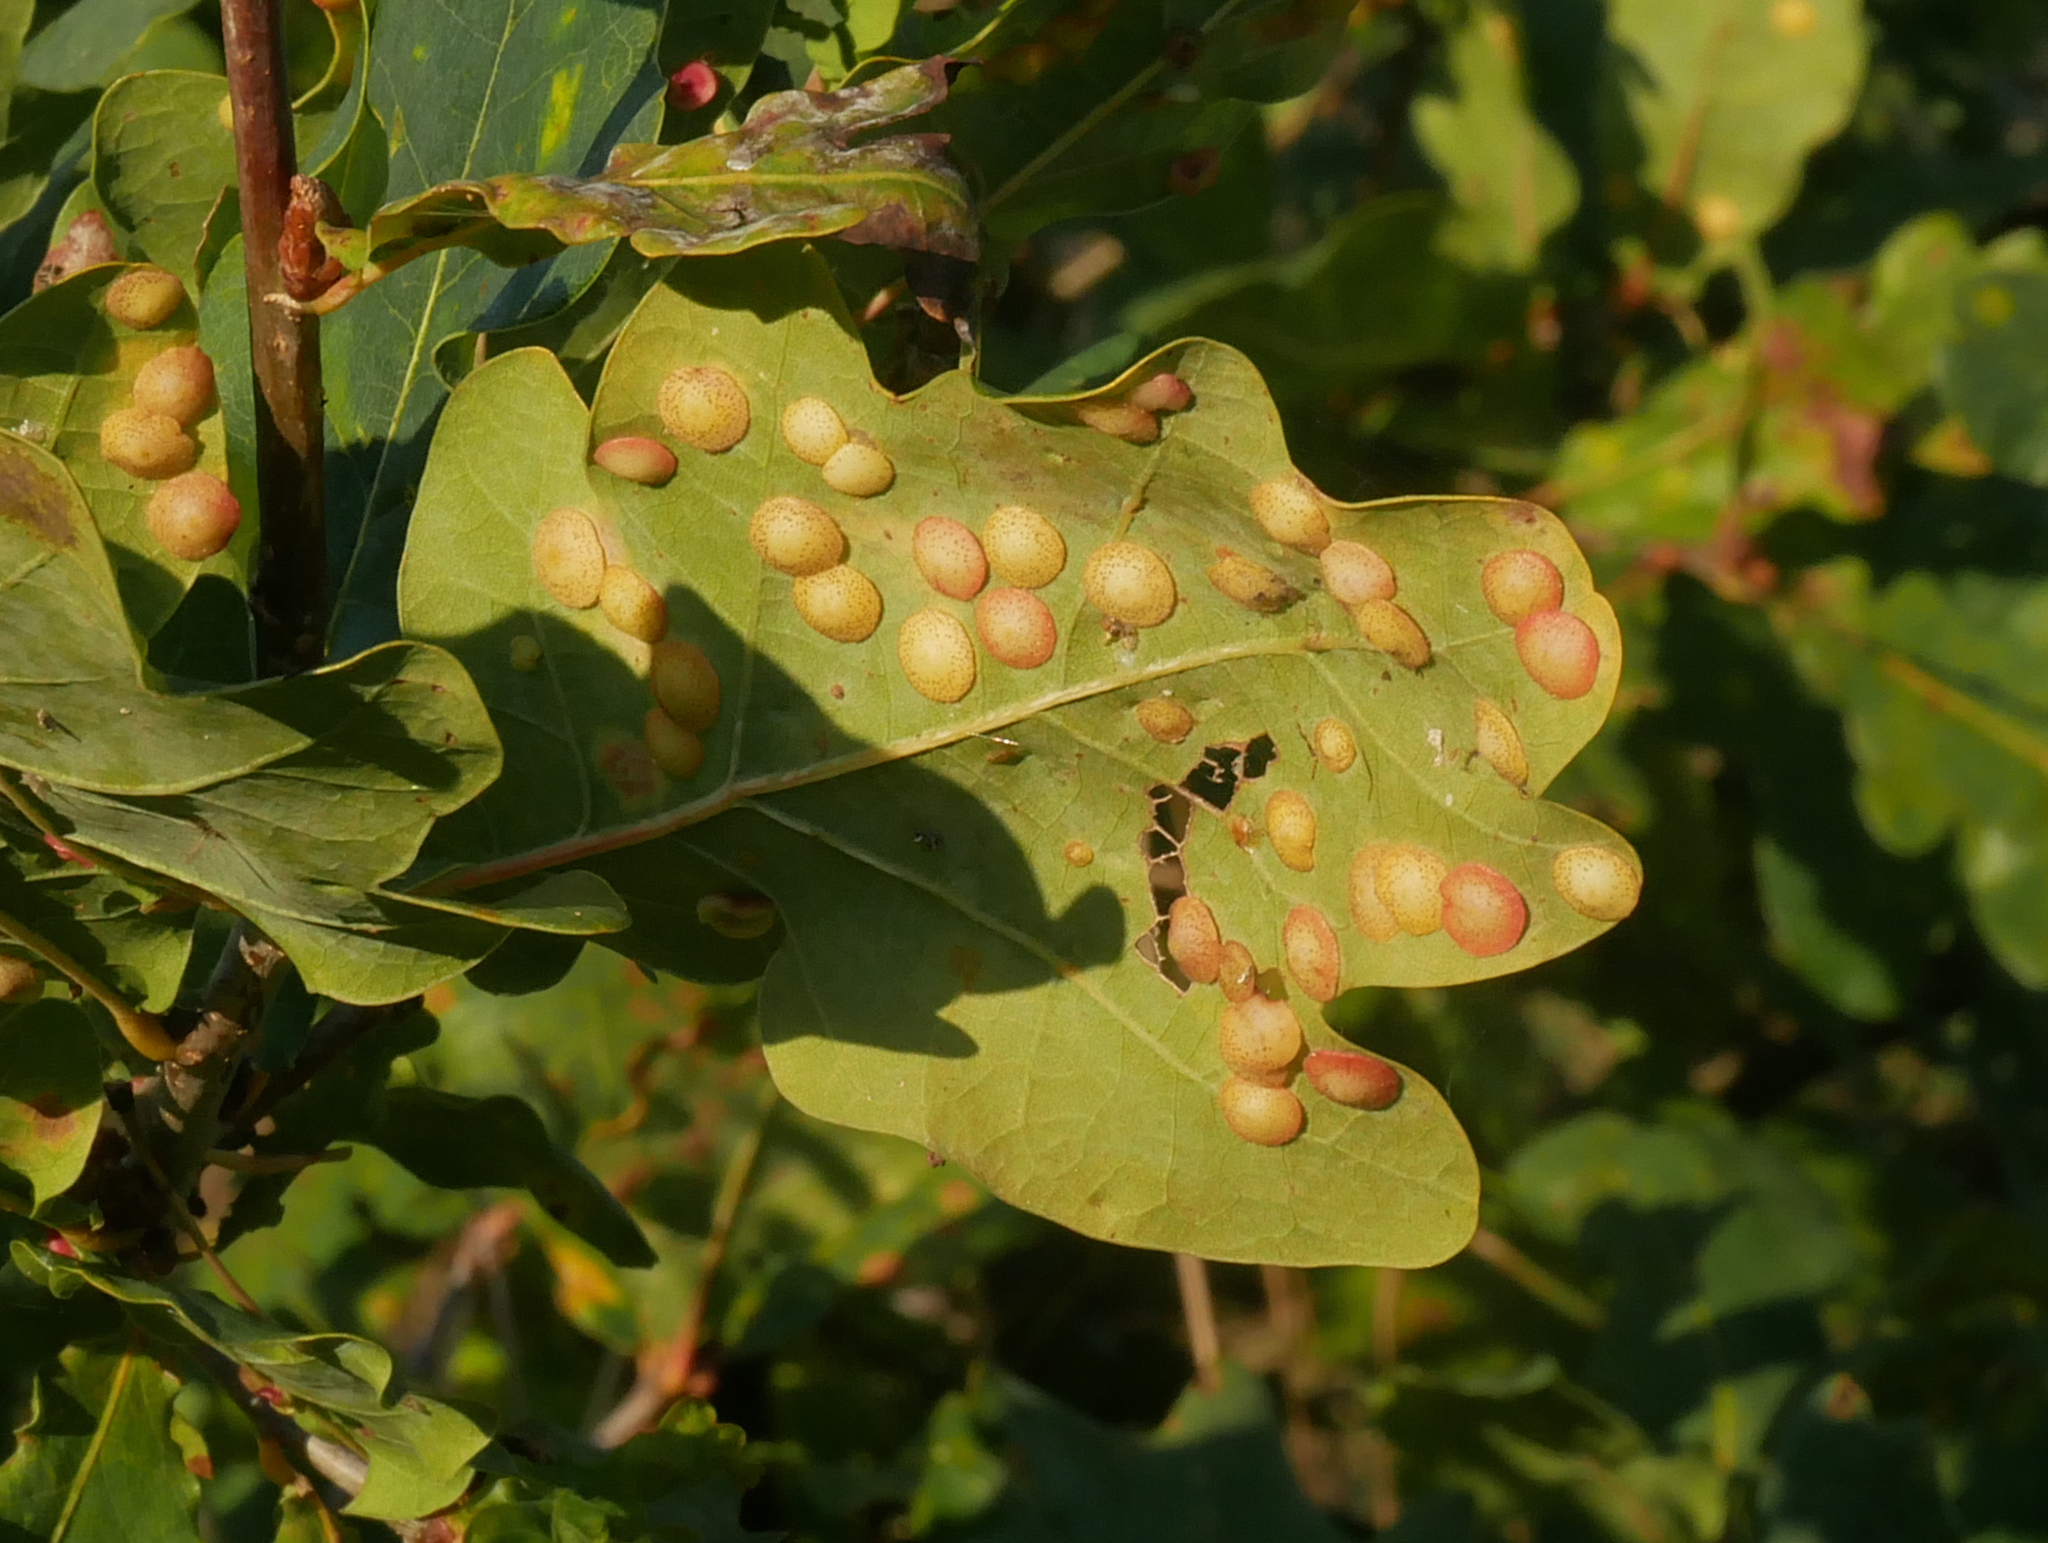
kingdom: Animalia
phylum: Arthropoda
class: Insecta
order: Hymenoptera
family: Cynipidae
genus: Neuroterus
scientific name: Neuroterus quercusbaccarum
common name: Common spangle gall
